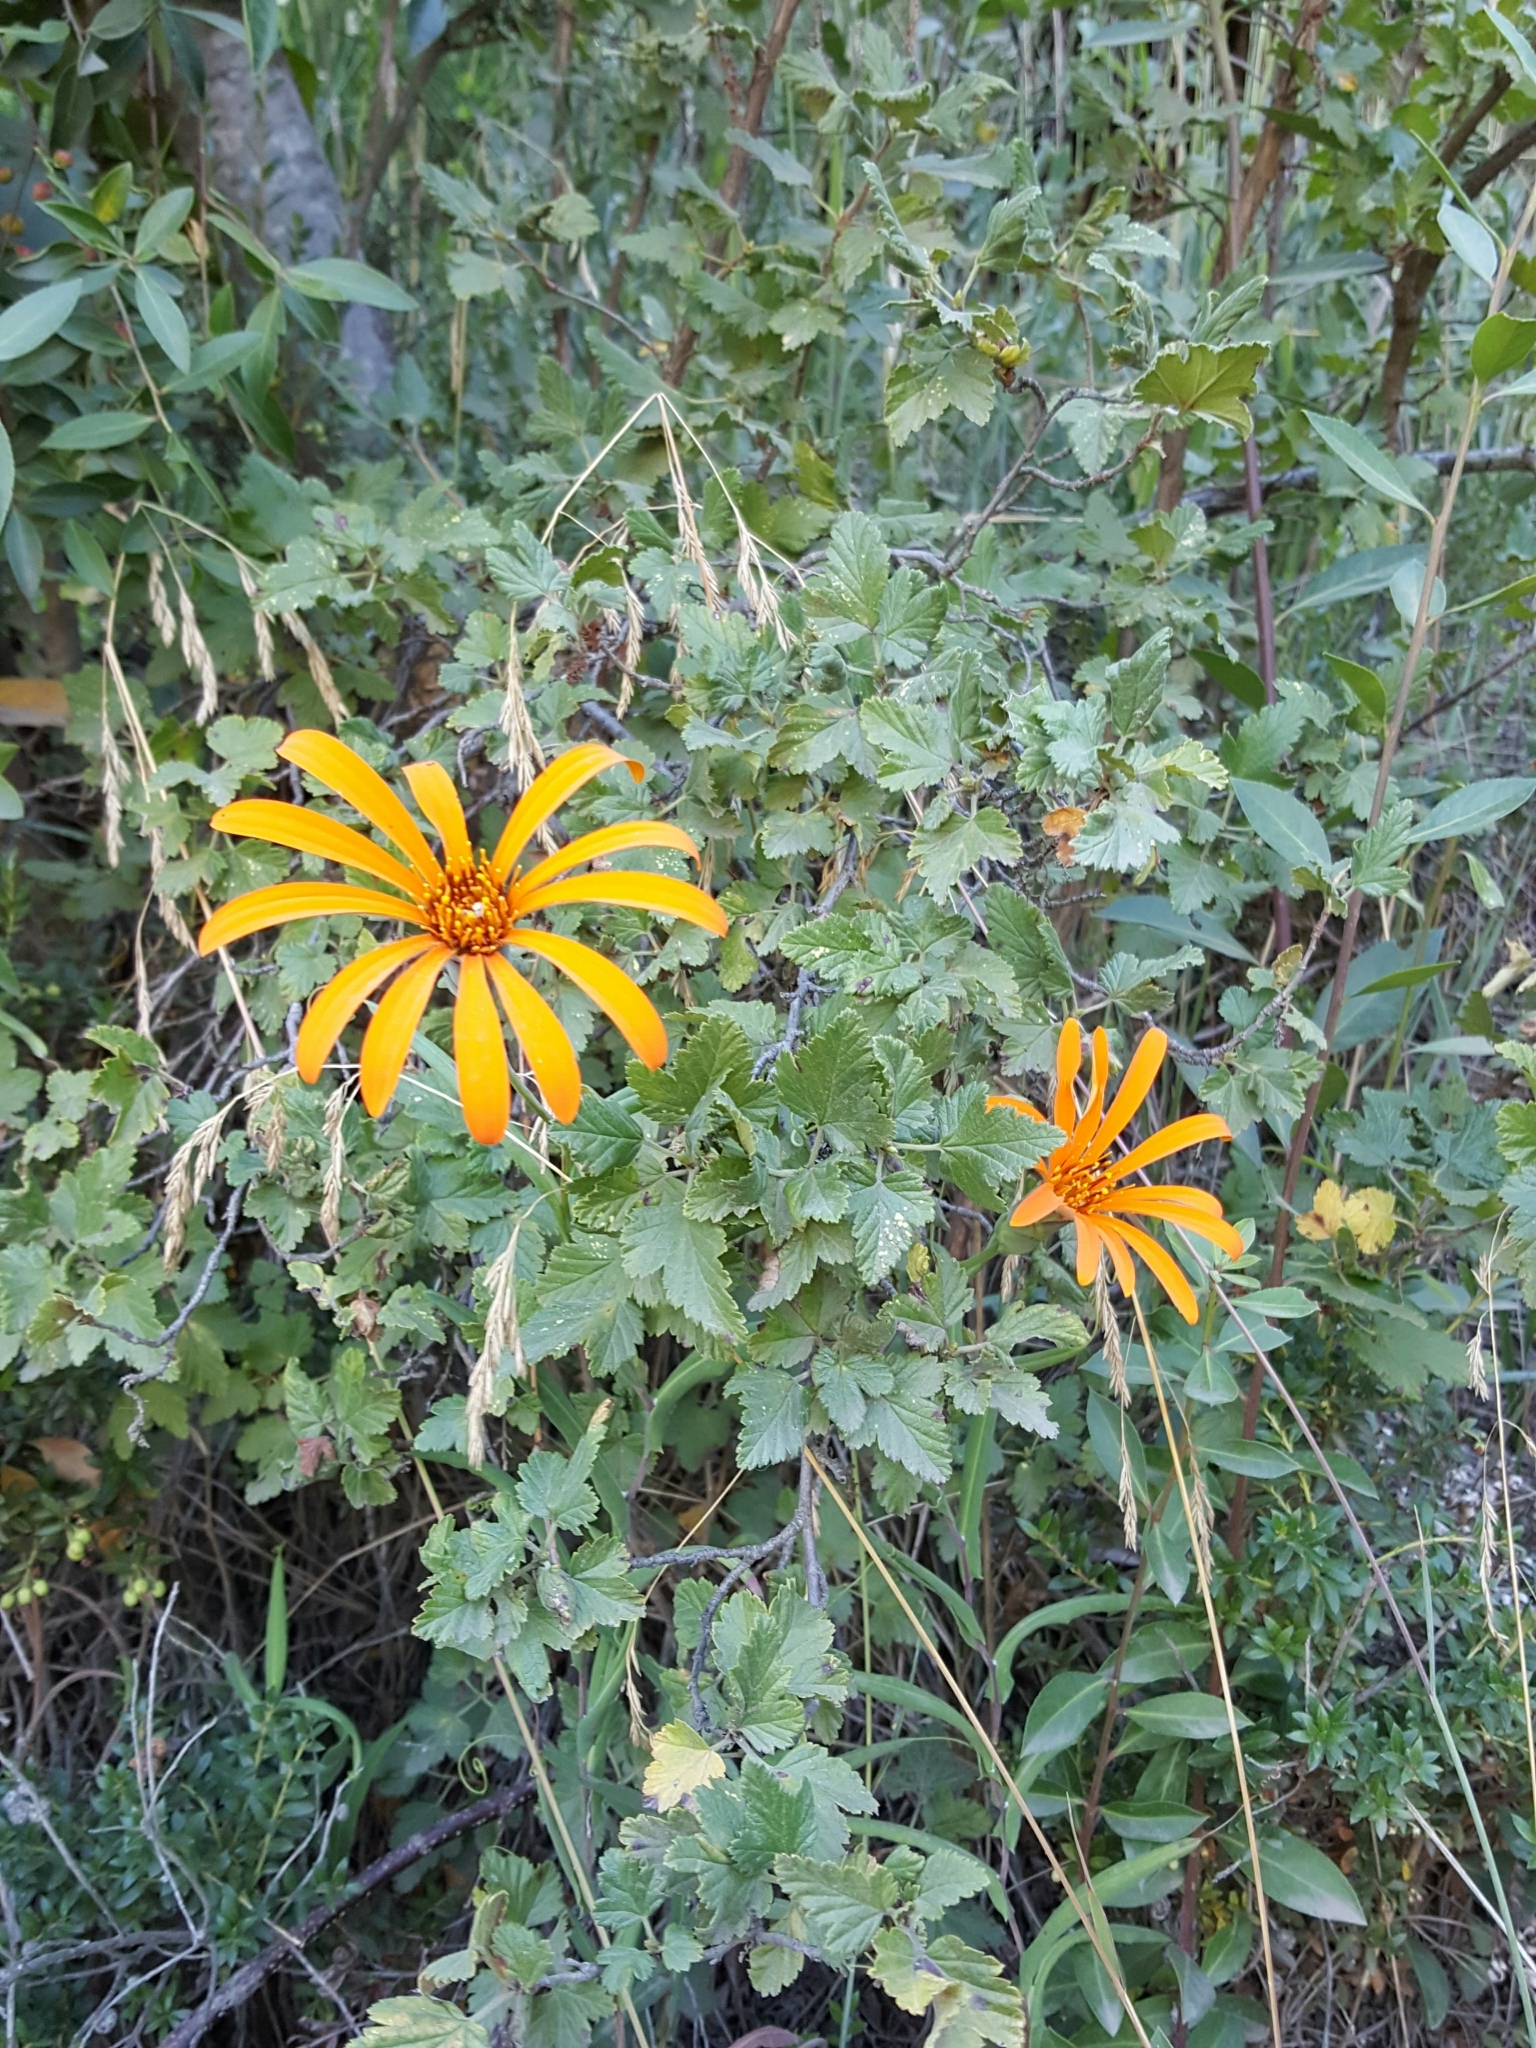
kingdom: Plantae
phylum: Tracheophyta
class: Magnoliopsida
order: Asterales
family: Asteraceae
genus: Mutisia
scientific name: Mutisia decurrens
